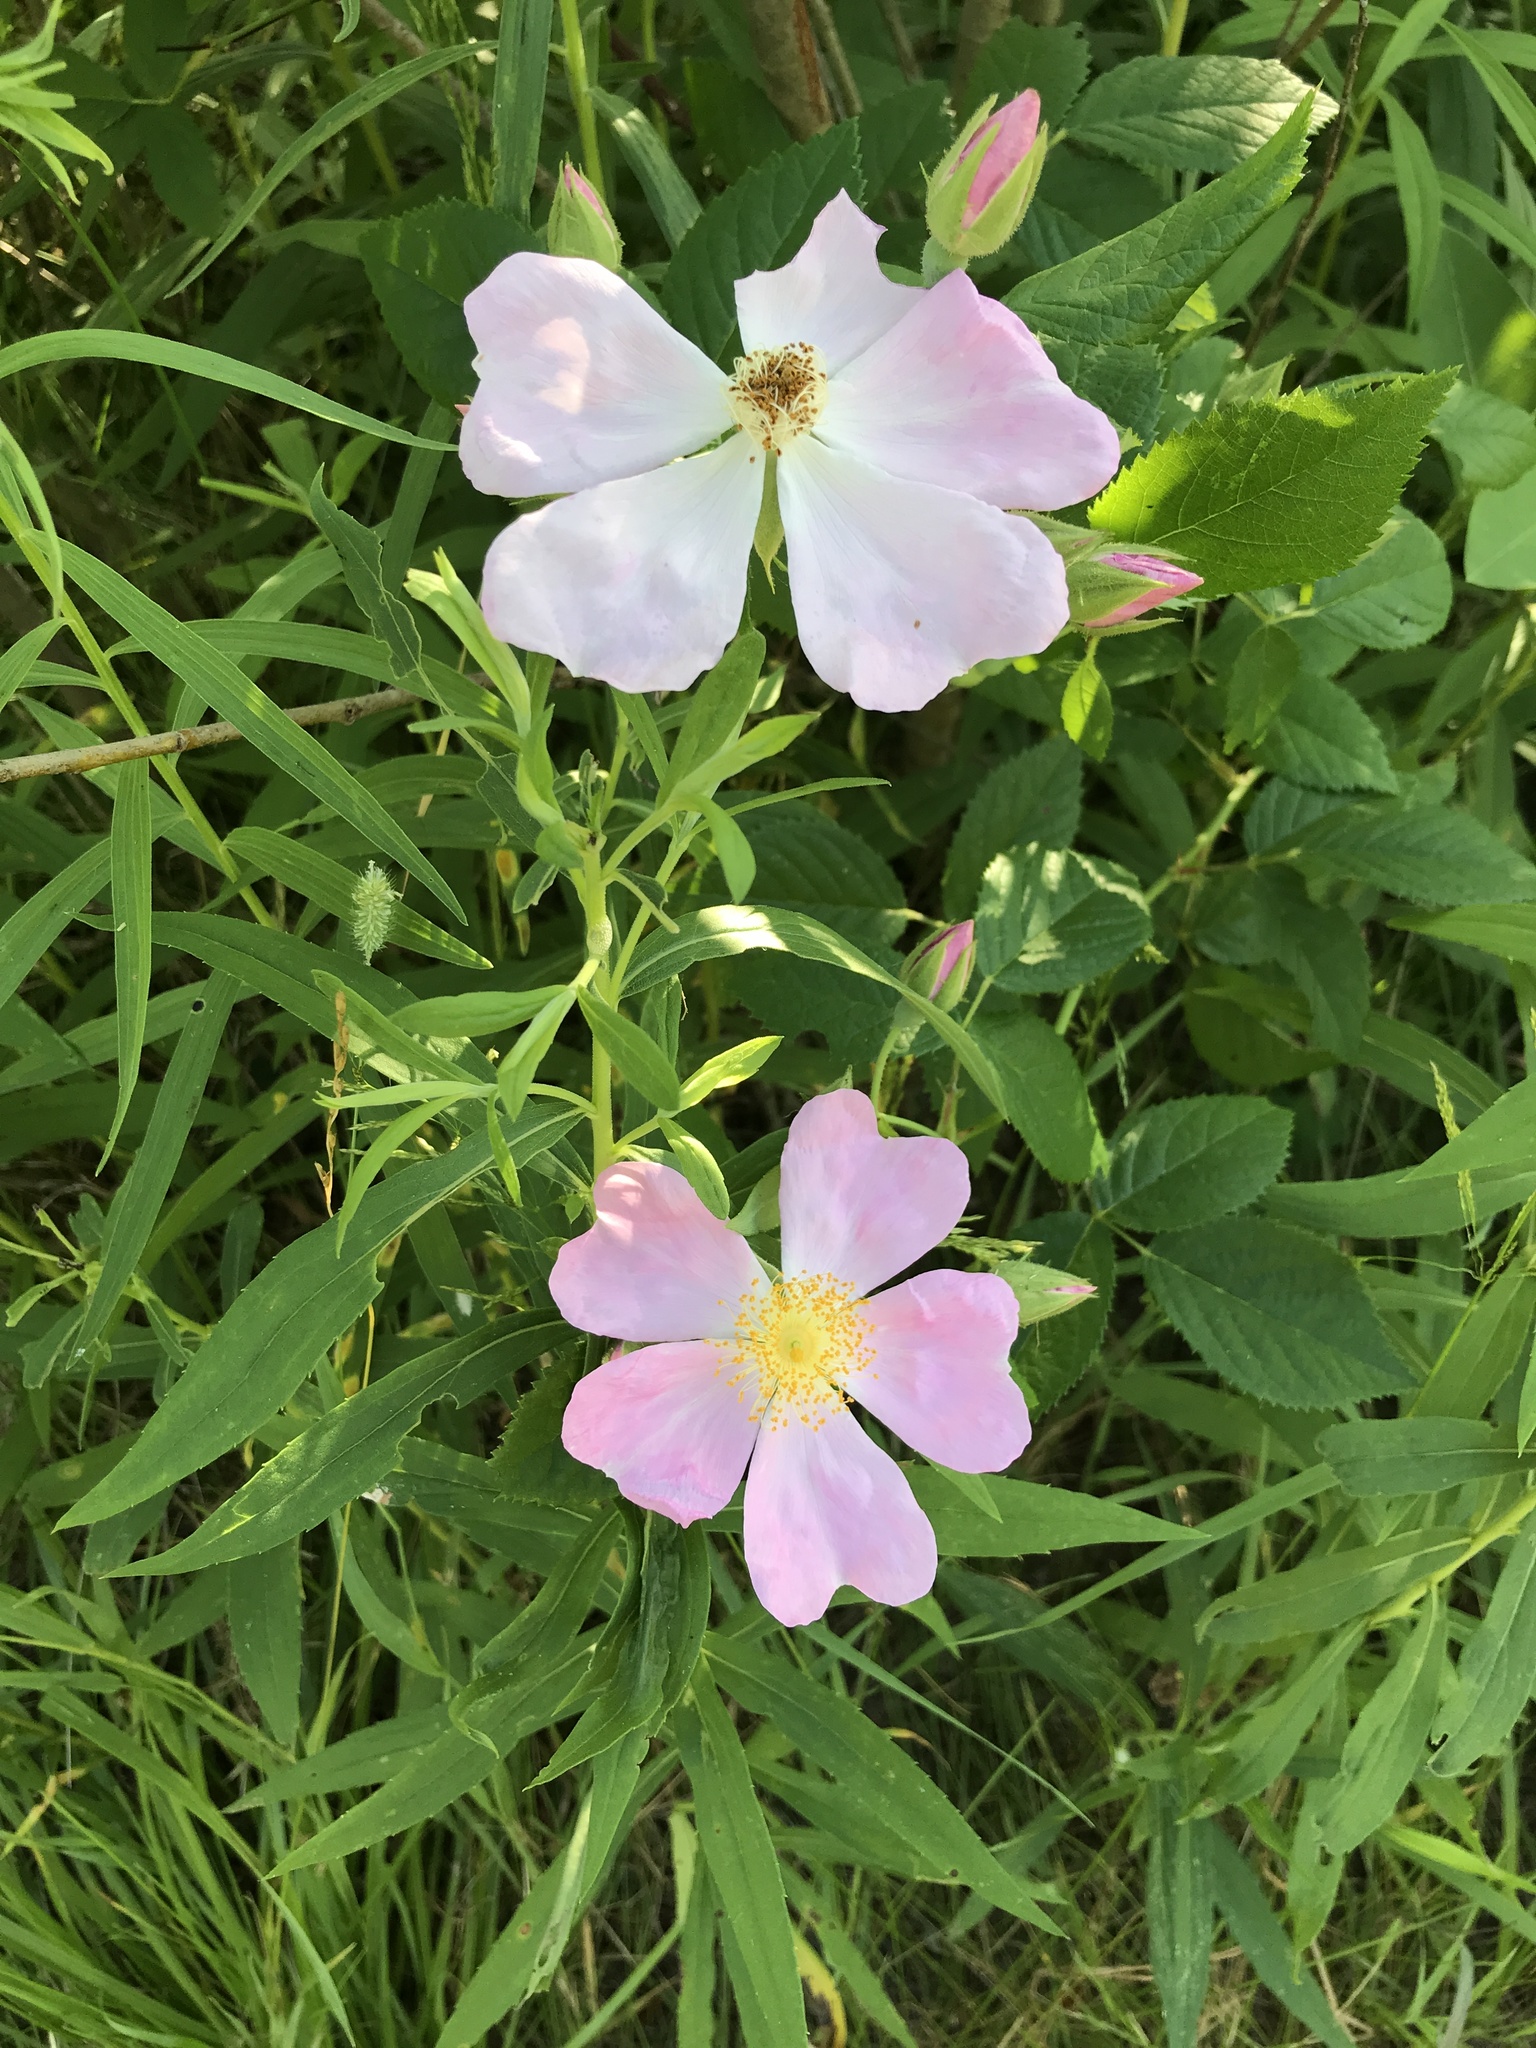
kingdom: Plantae
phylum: Tracheophyta
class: Magnoliopsida
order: Rosales
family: Rosaceae
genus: Rosa
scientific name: Rosa palustris
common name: Swamp rose
